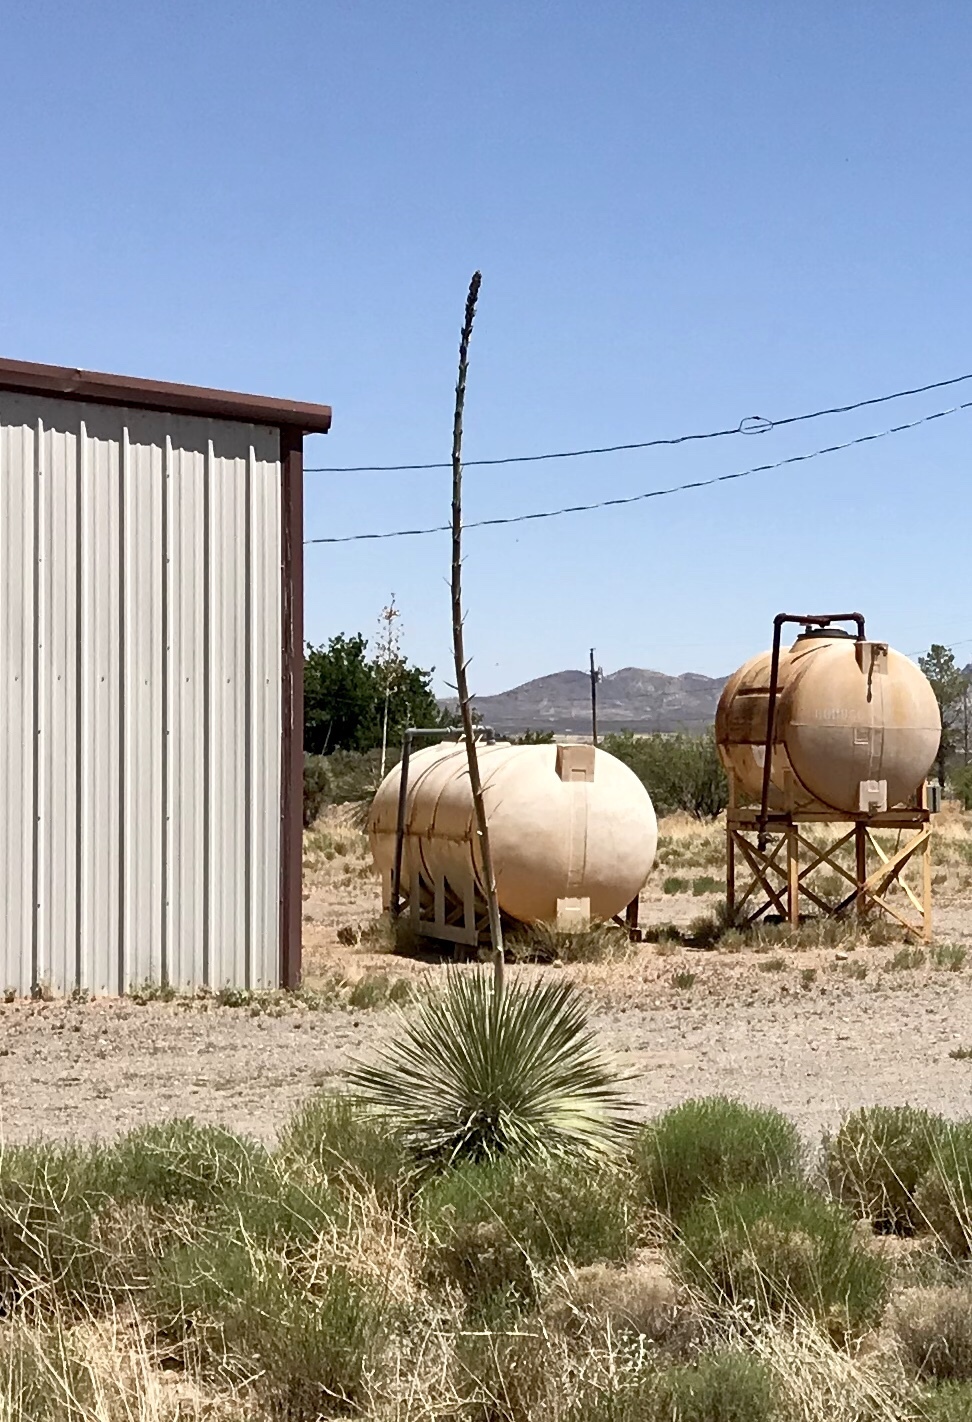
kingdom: Plantae
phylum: Tracheophyta
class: Liliopsida
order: Asparagales
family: Asparagaceae
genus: Yucca
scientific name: Yucca elata
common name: Palmella
